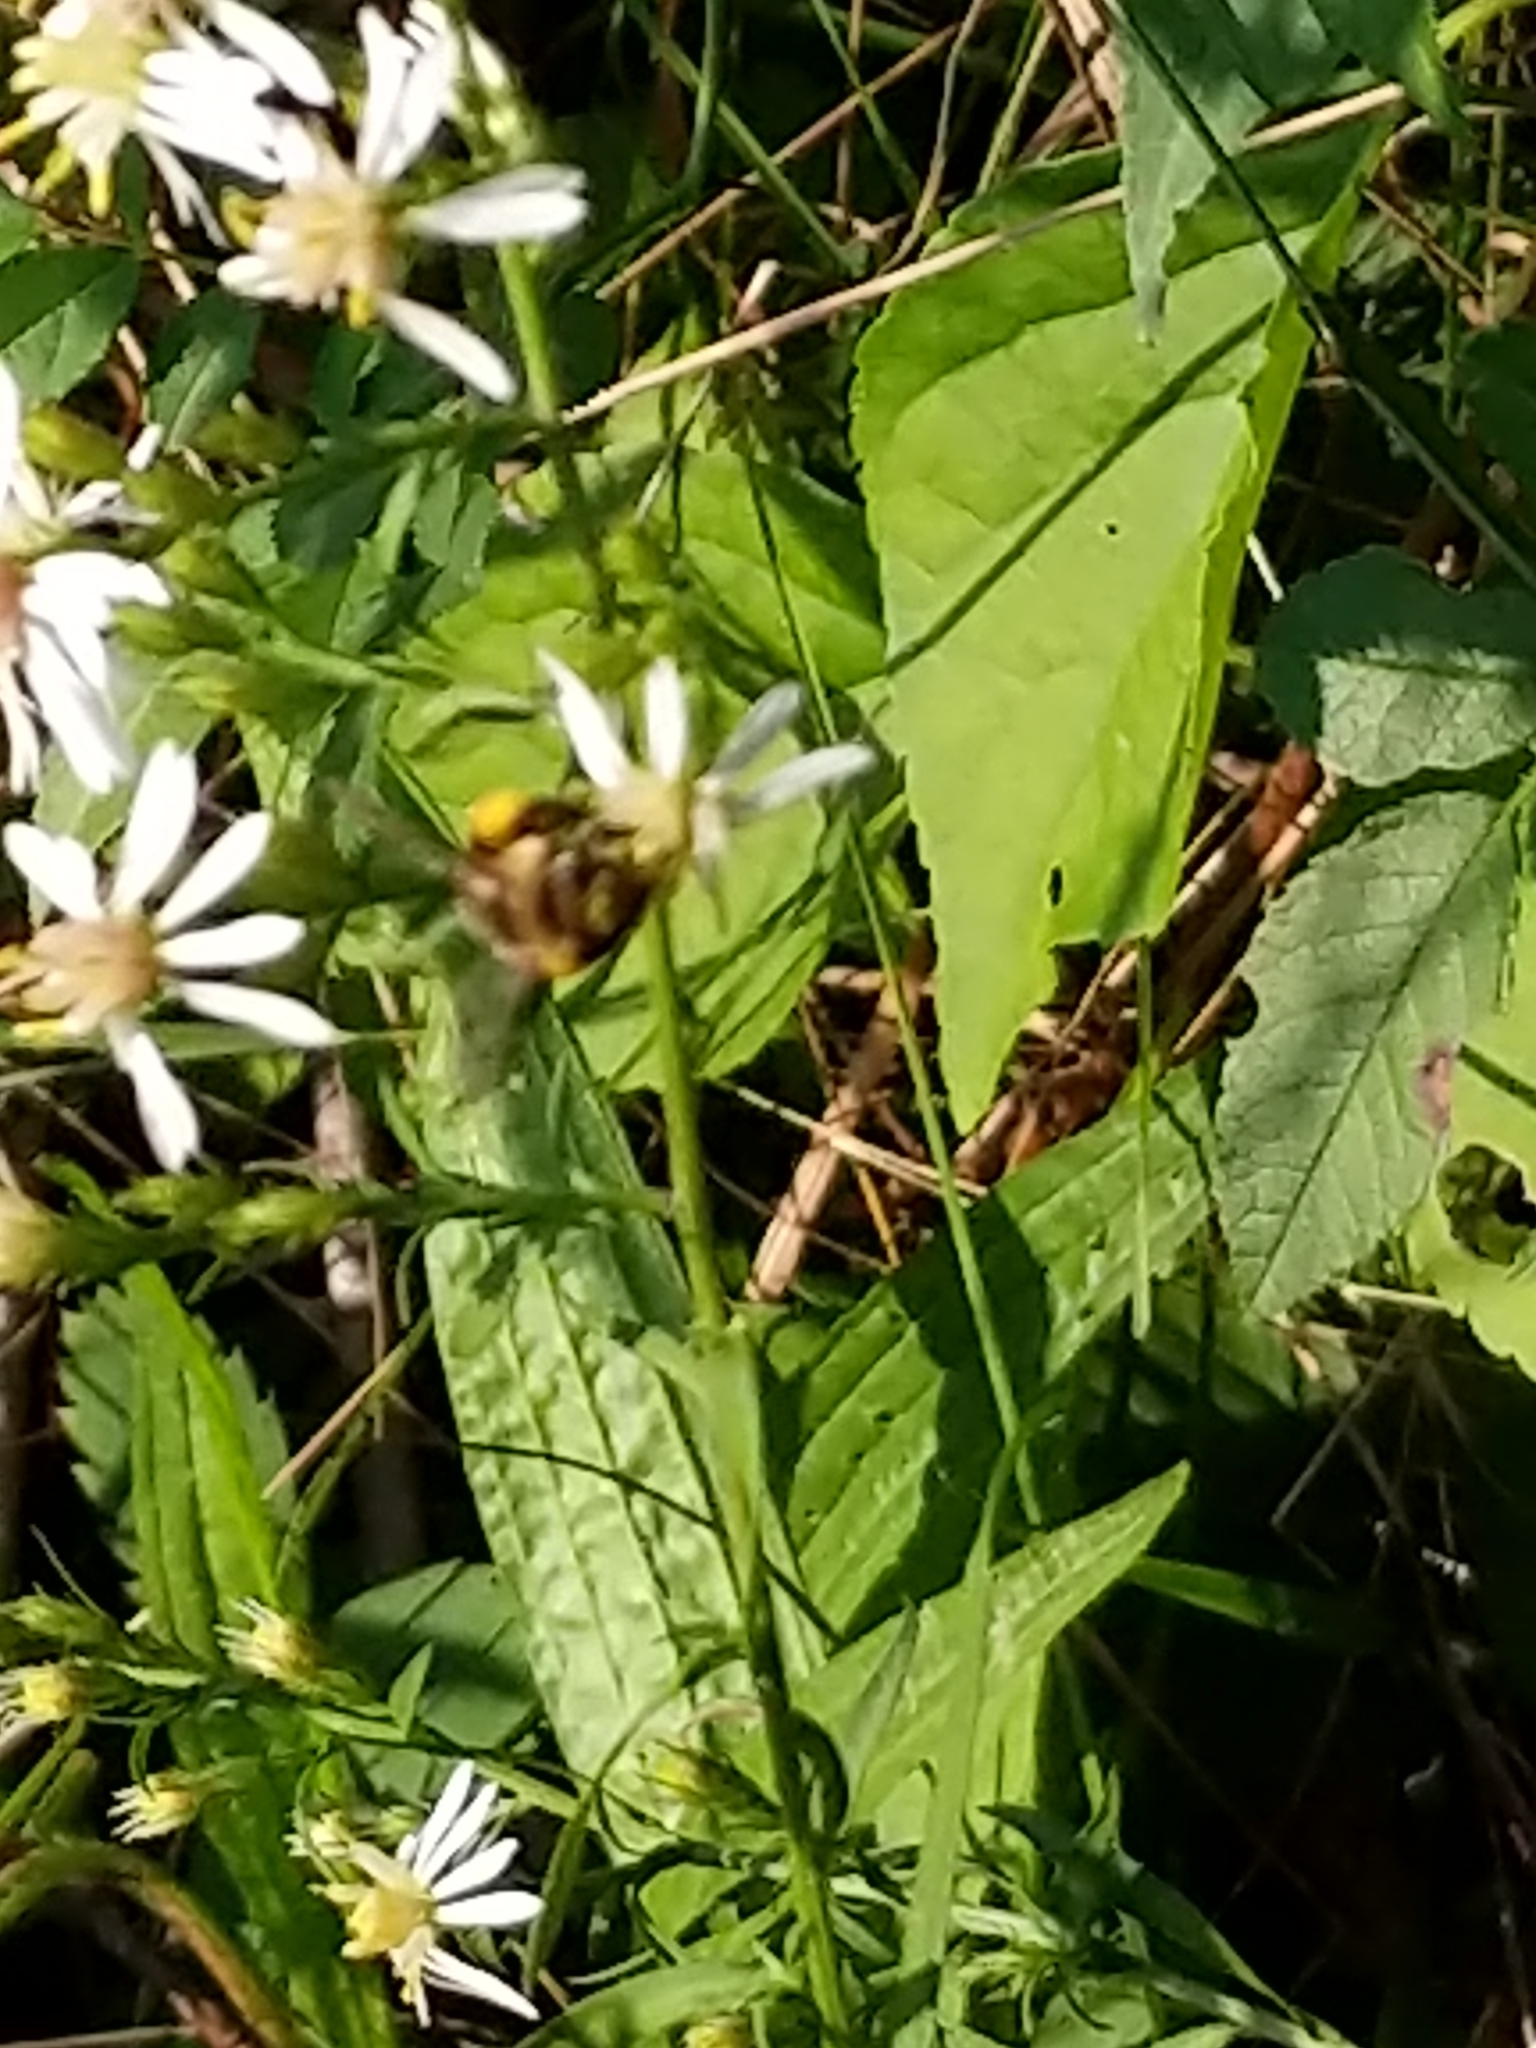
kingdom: Animalia
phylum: Arthropoda
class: Insecta
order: Hymenoptera
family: Apidae
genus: Apis
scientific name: Apis mellifera
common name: Honey bee
